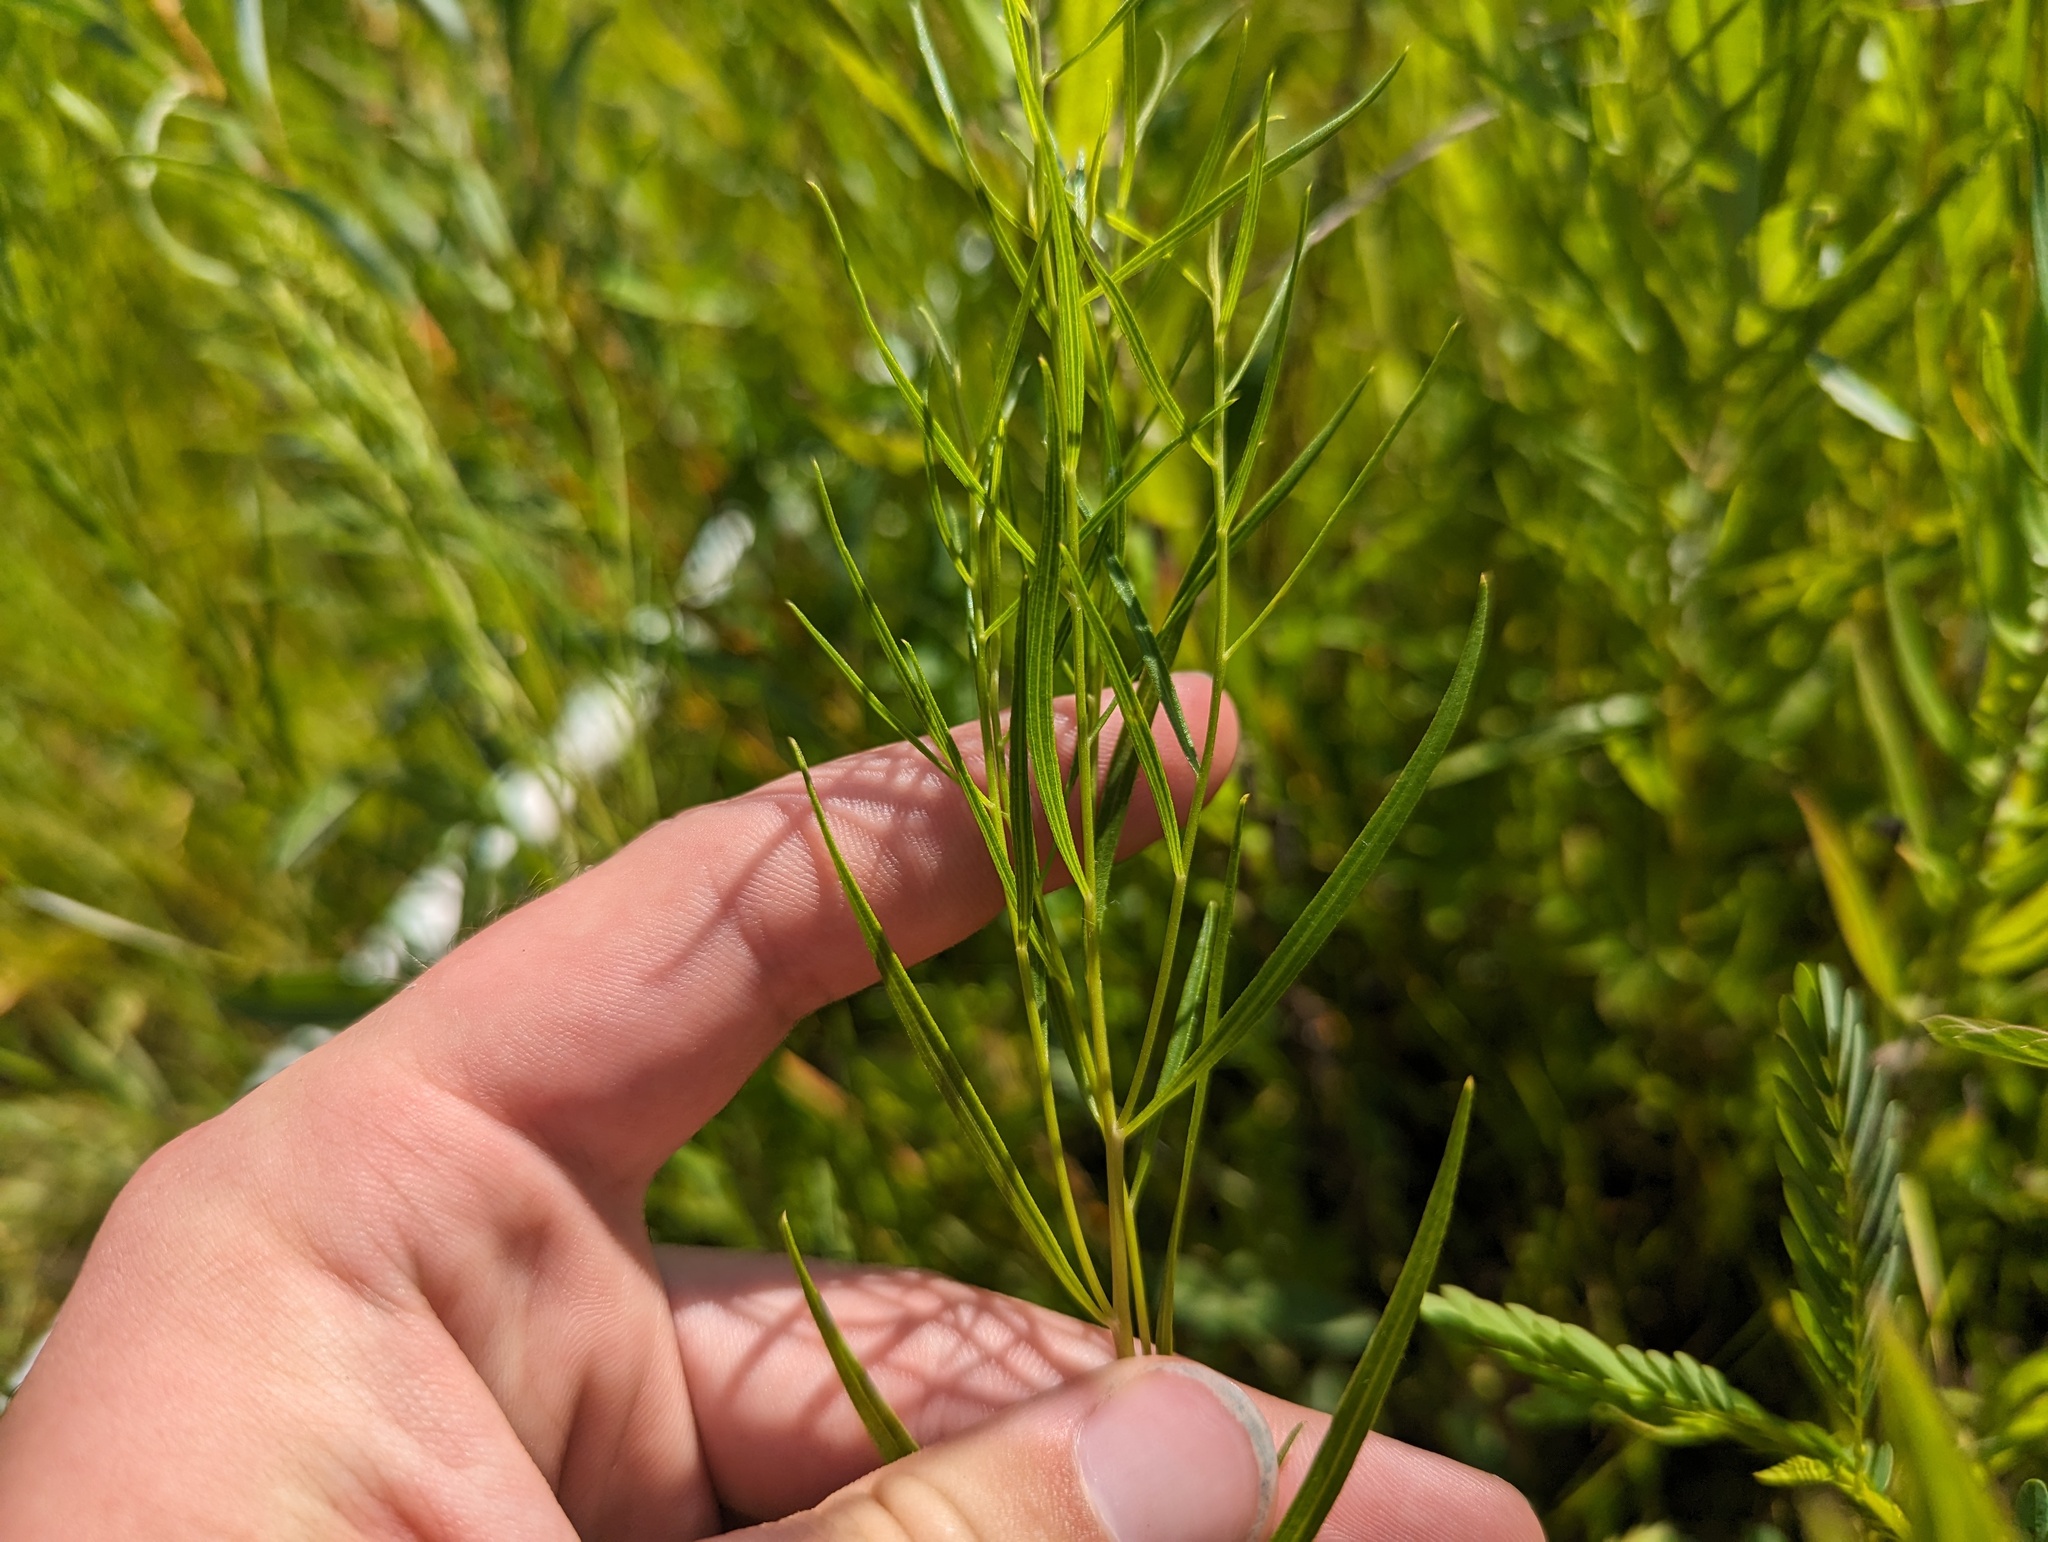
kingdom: Plantae
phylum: Tracheophyta
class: Magnoliopsida
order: Asterales
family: Asteraceae
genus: Euthamia
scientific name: Euthamia gymnospermoides
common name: Great plains goldentop
